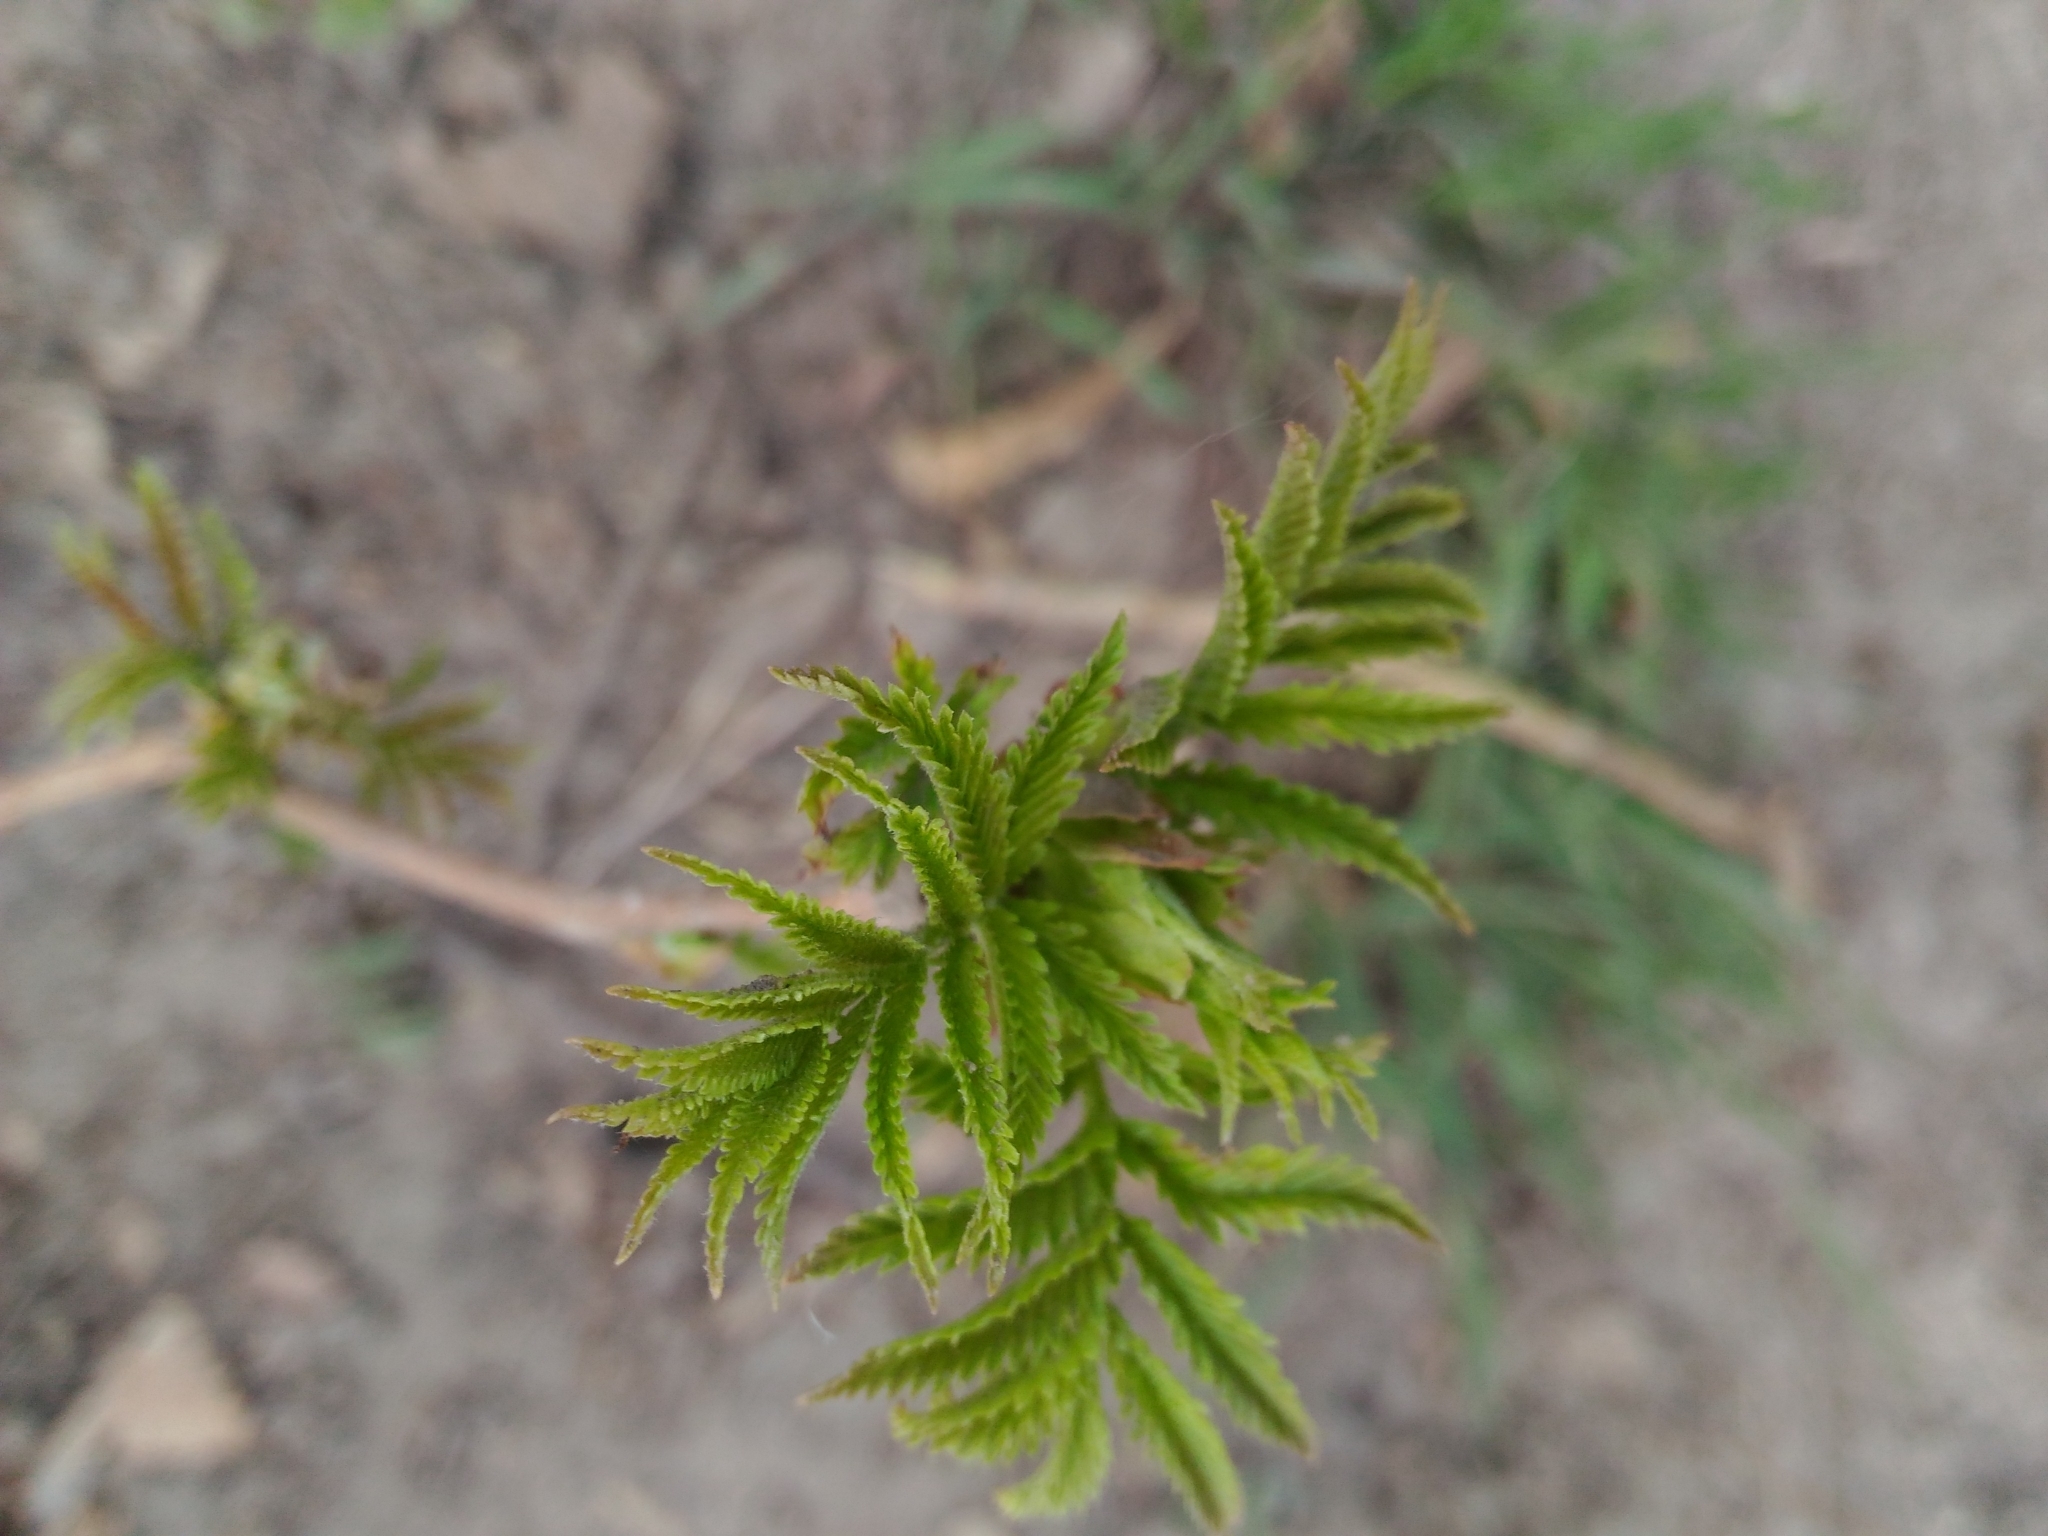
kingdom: Plantae
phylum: Tracheophyta
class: Magnoliopsida
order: Rosales
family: Rosaceae
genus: Sorbaria
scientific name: Sorbaria sorbifolia
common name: False spiraea
